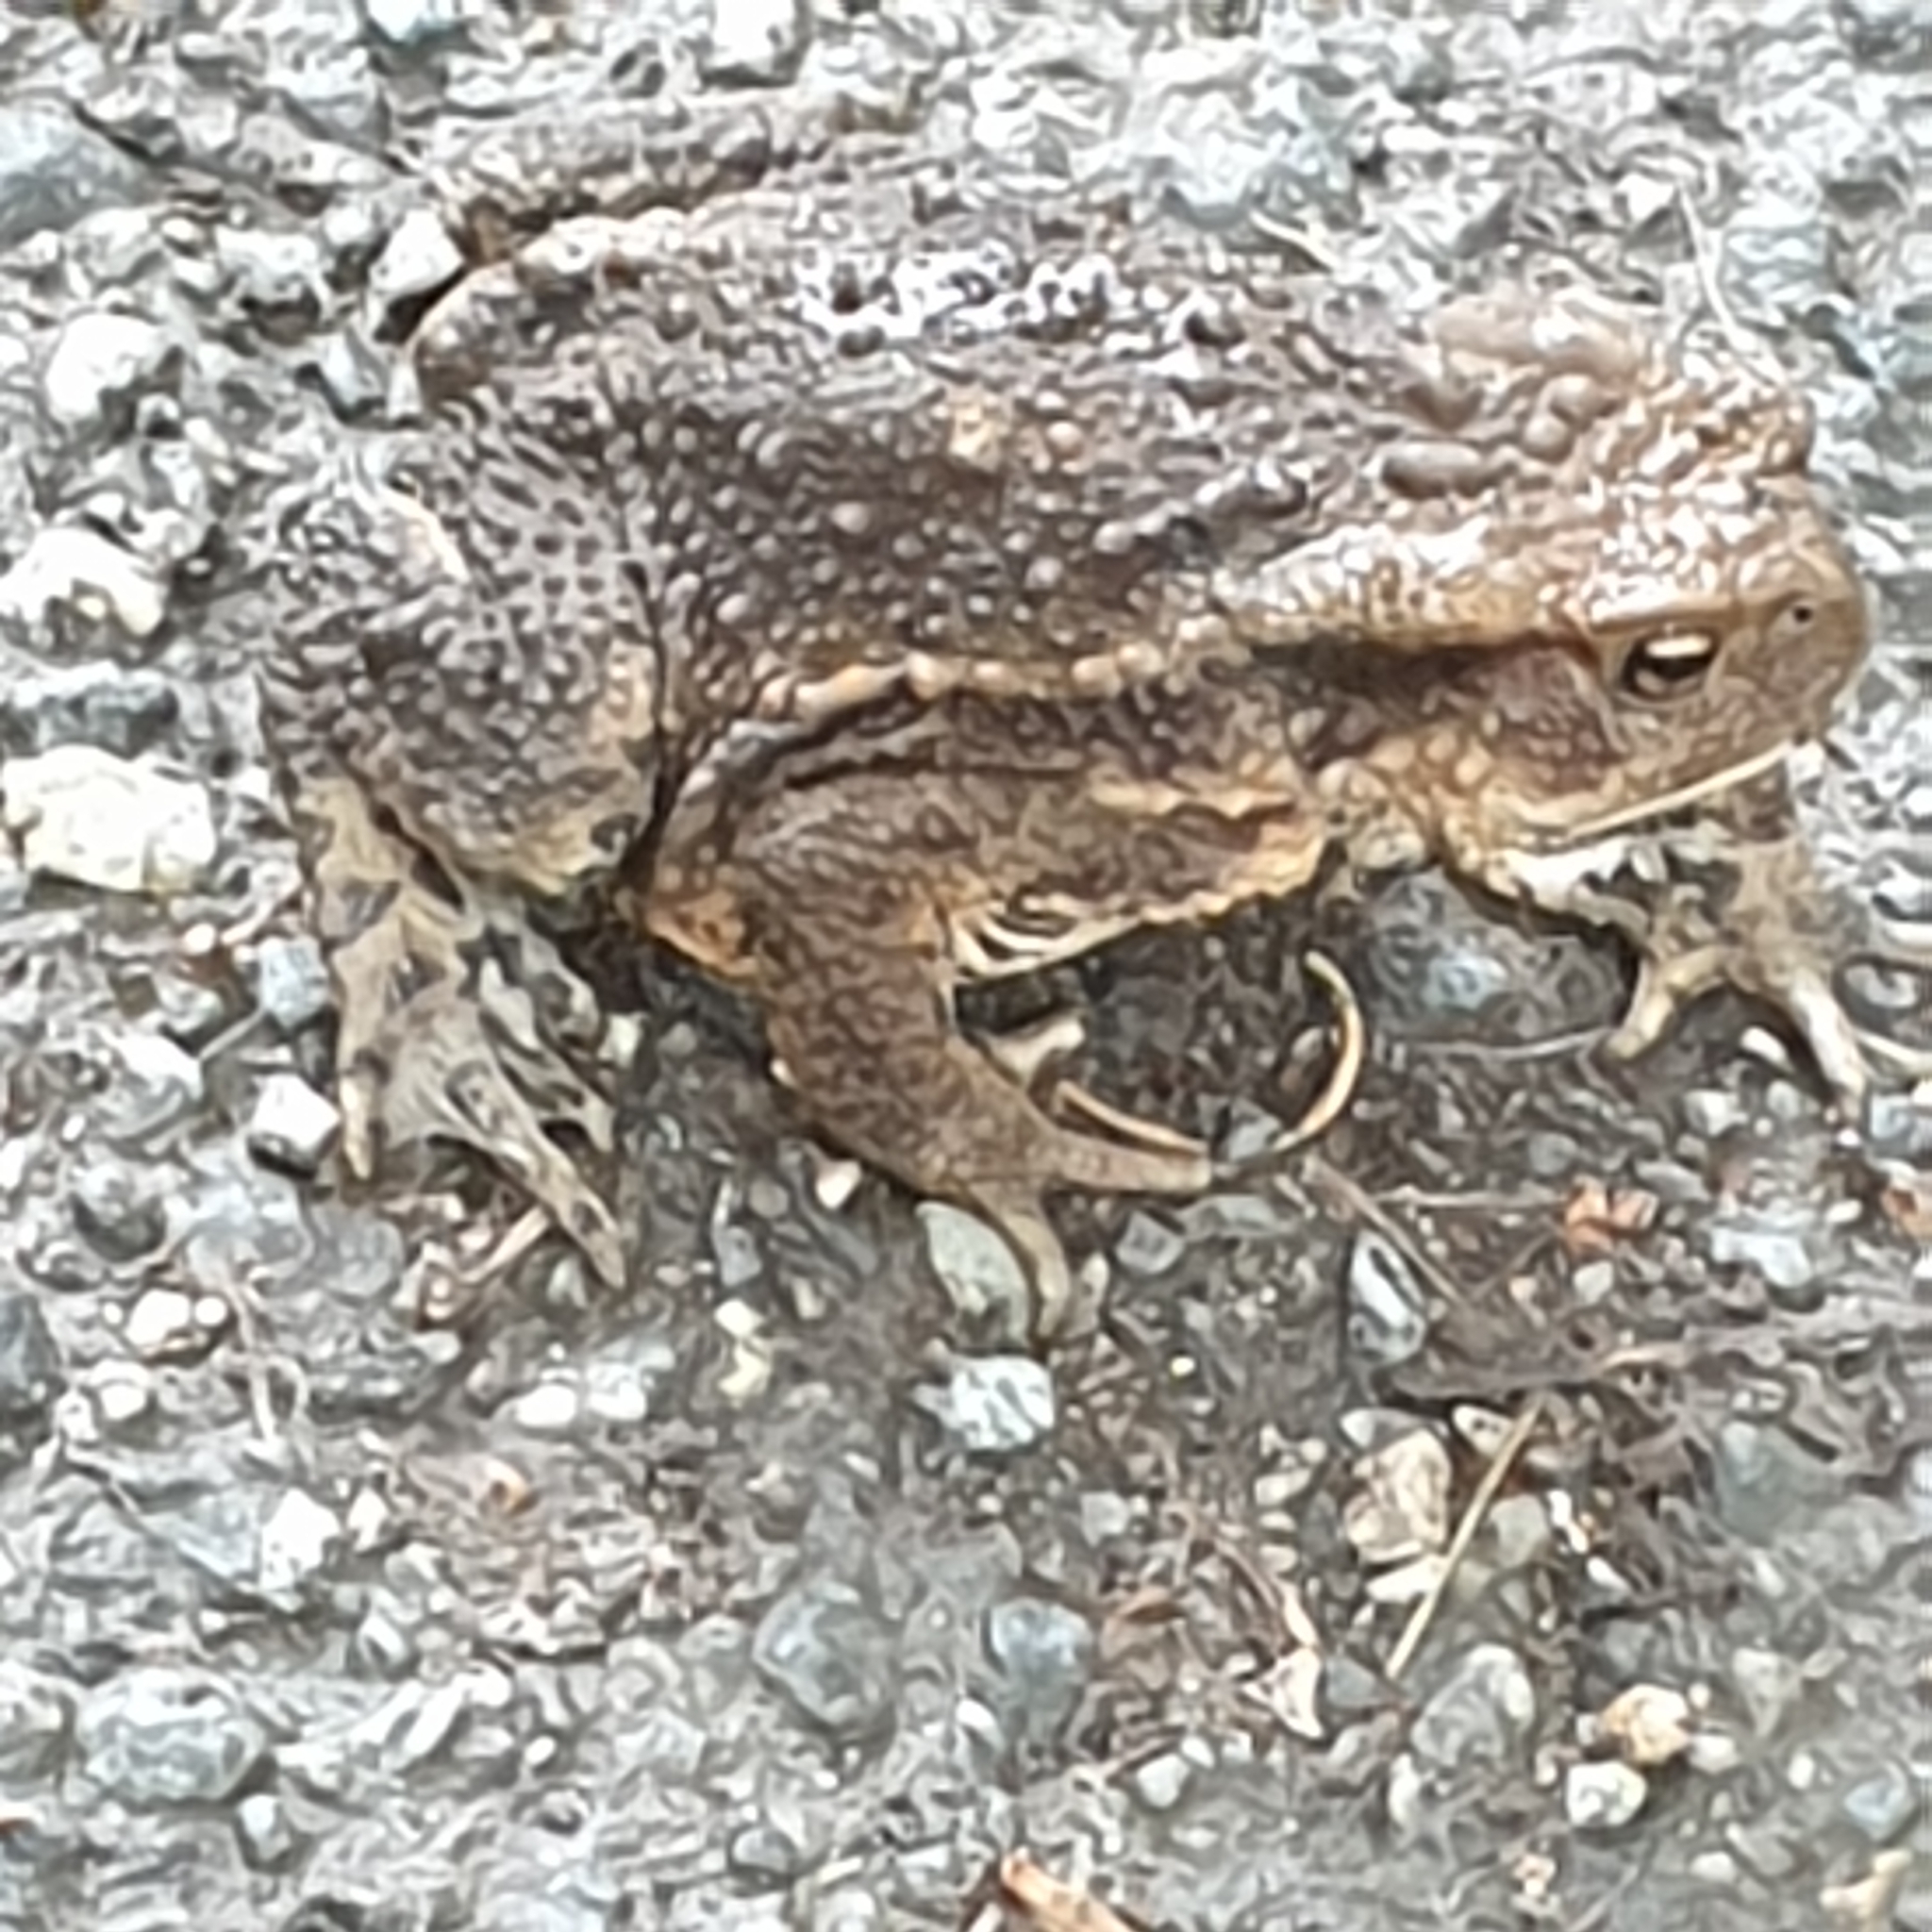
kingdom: Animalia
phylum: Chordata
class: Amphibia
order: Anura
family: Bufonidae
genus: Bufo
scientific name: Bufo bufo
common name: Common toad
